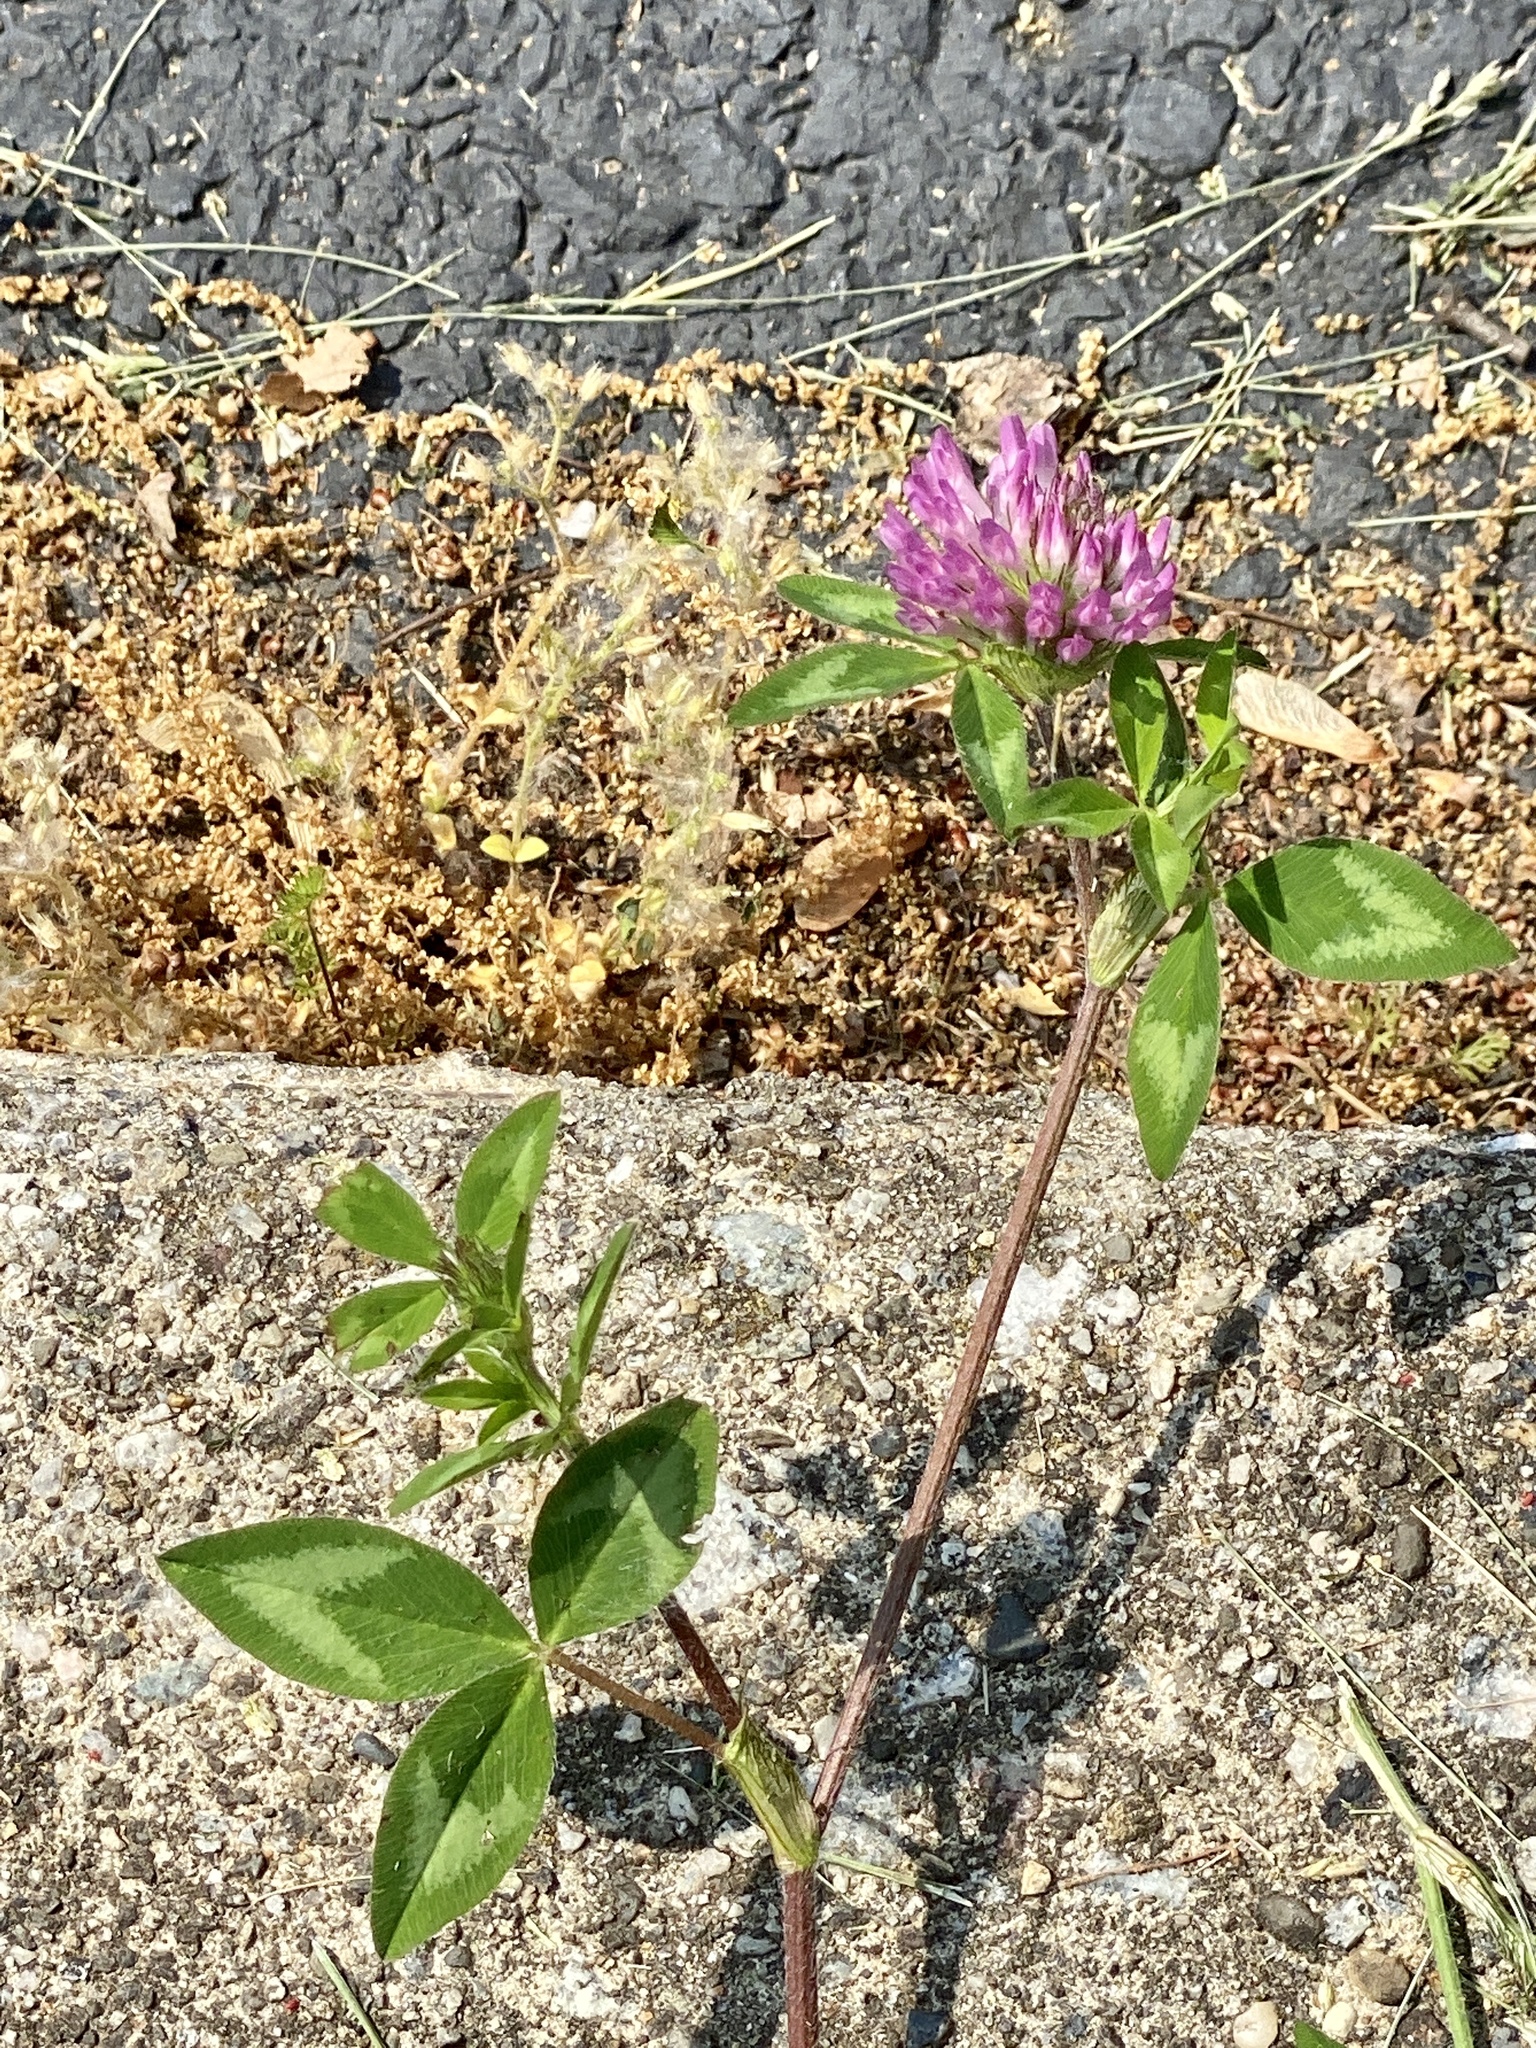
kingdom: Plantae
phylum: Tracheophyta
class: Magnoliopsida
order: Fabales
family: Fabaceae
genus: Trifolium
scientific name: Trifolium pratense
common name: Red clover
